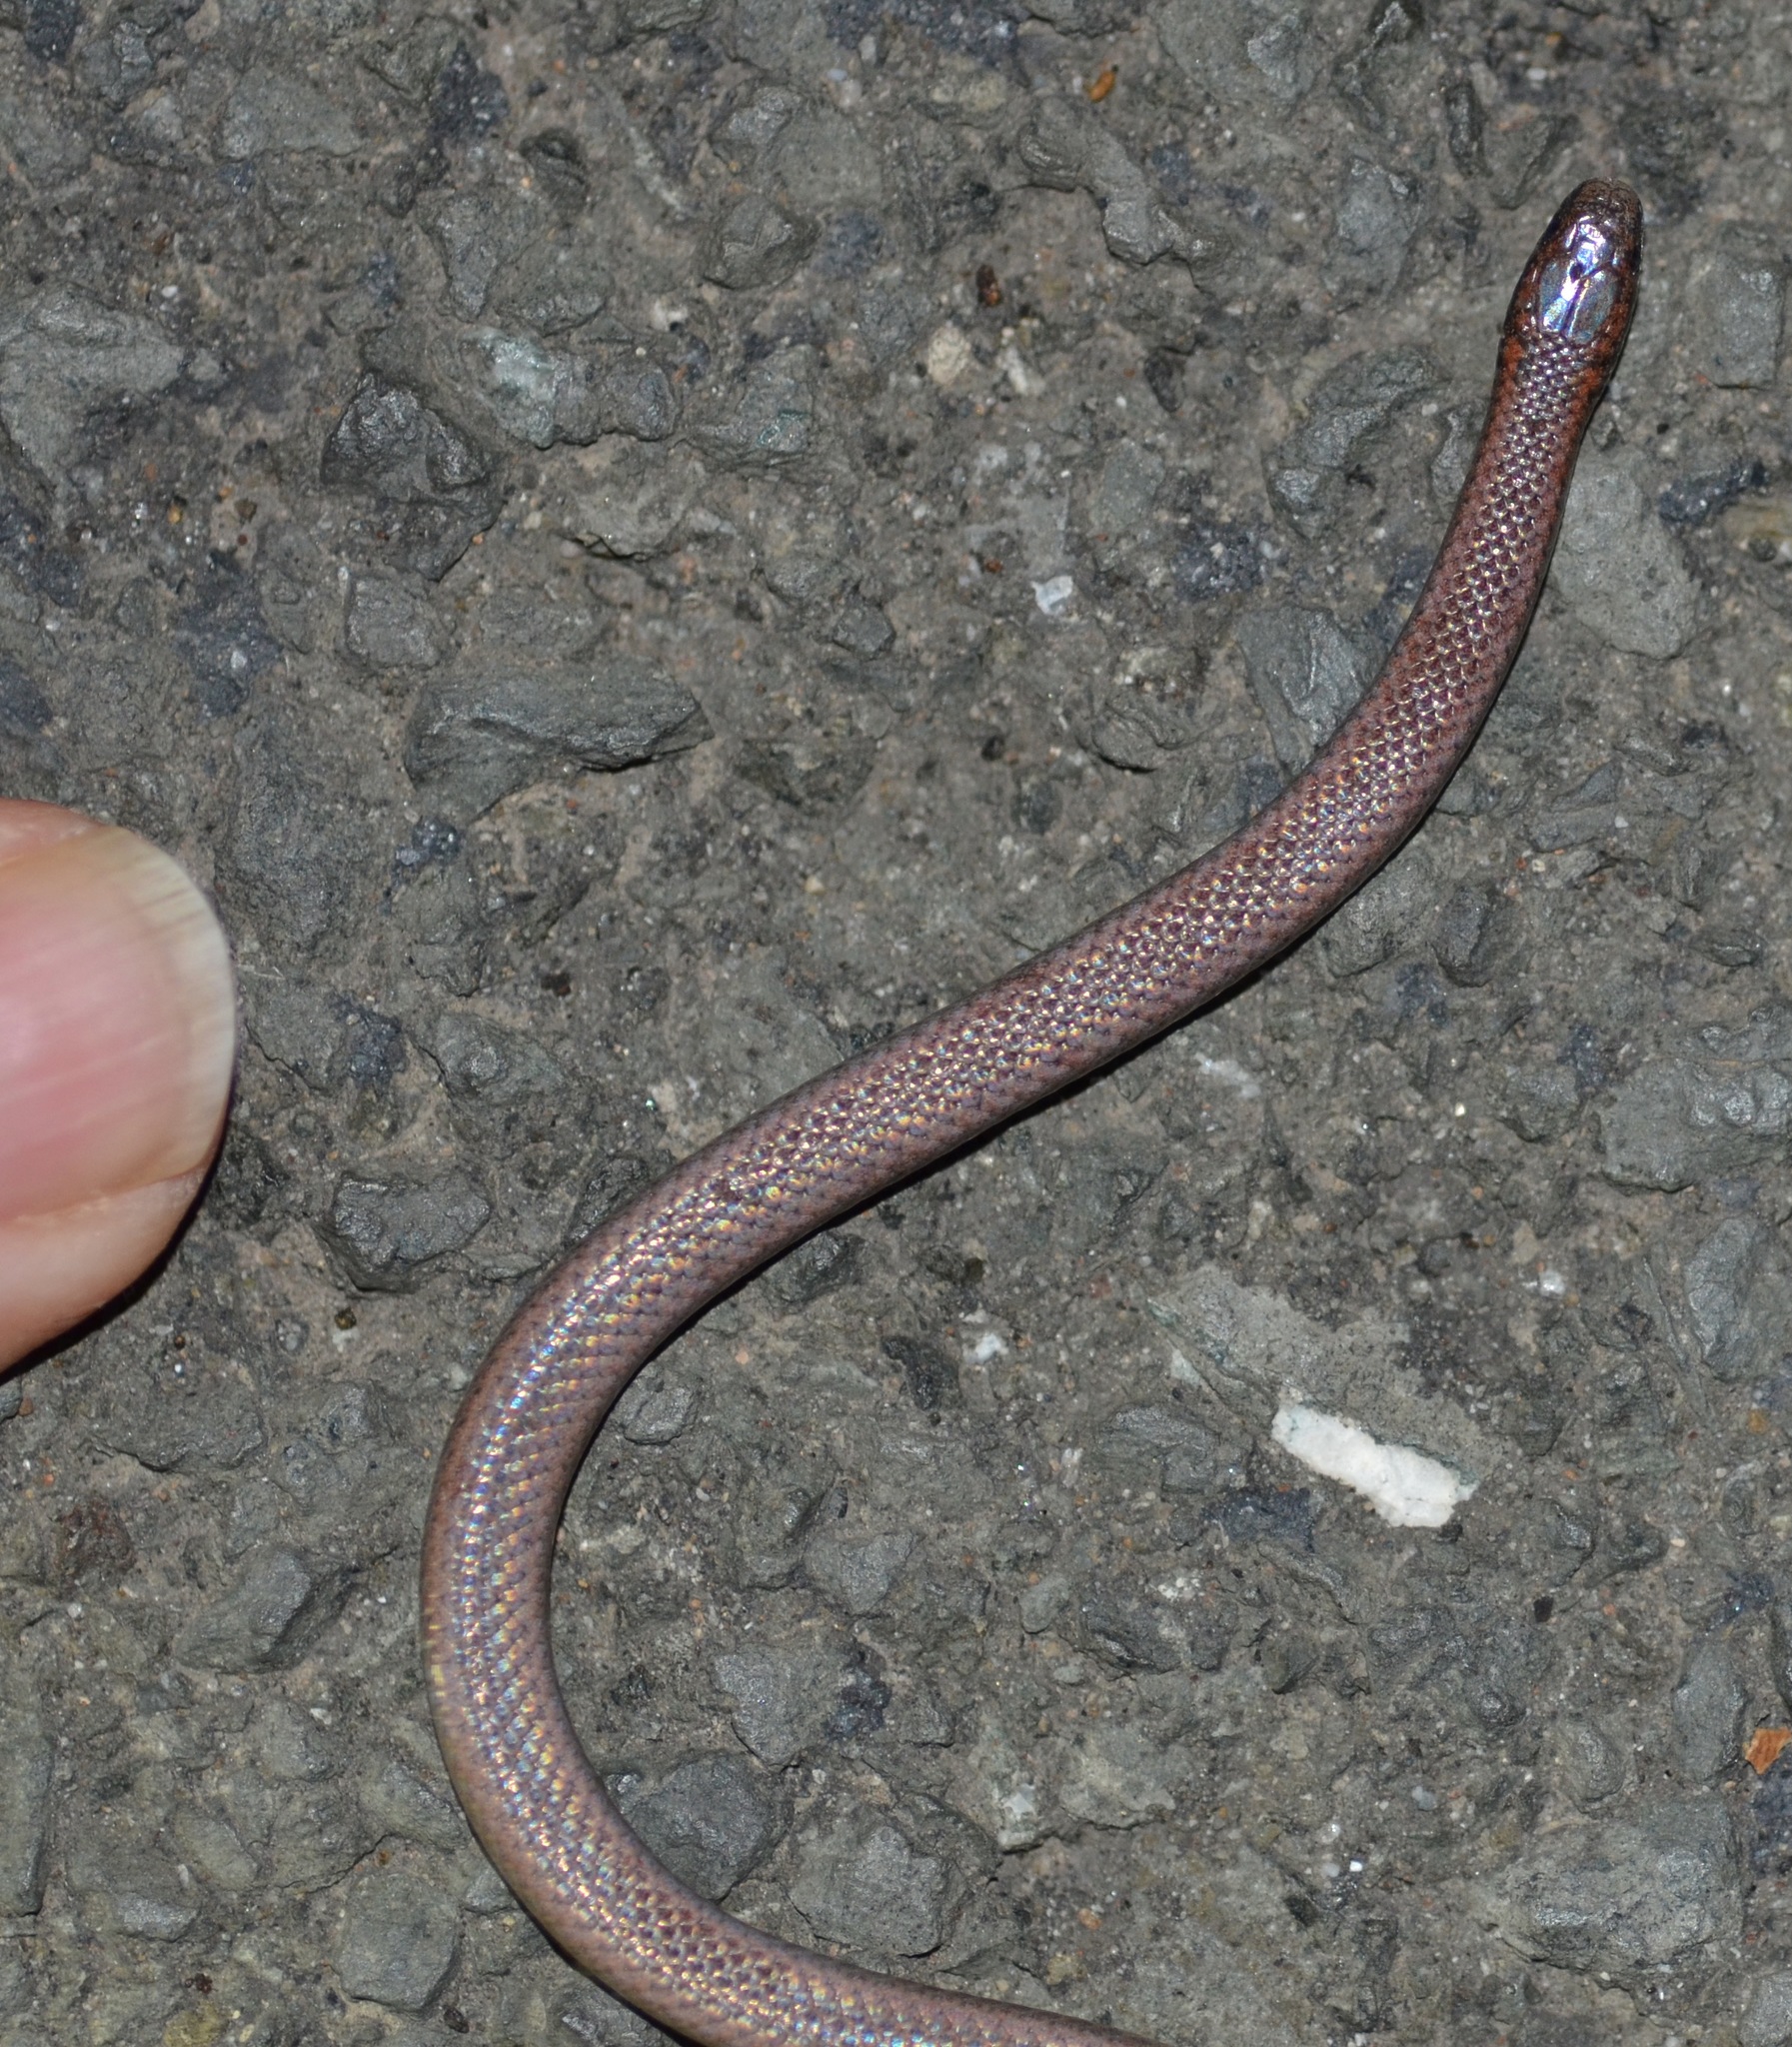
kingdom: Animalia
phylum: Chordata
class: Squamata
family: Colubridae
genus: Contia
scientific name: Contia tenuis
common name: Sharptail snake
